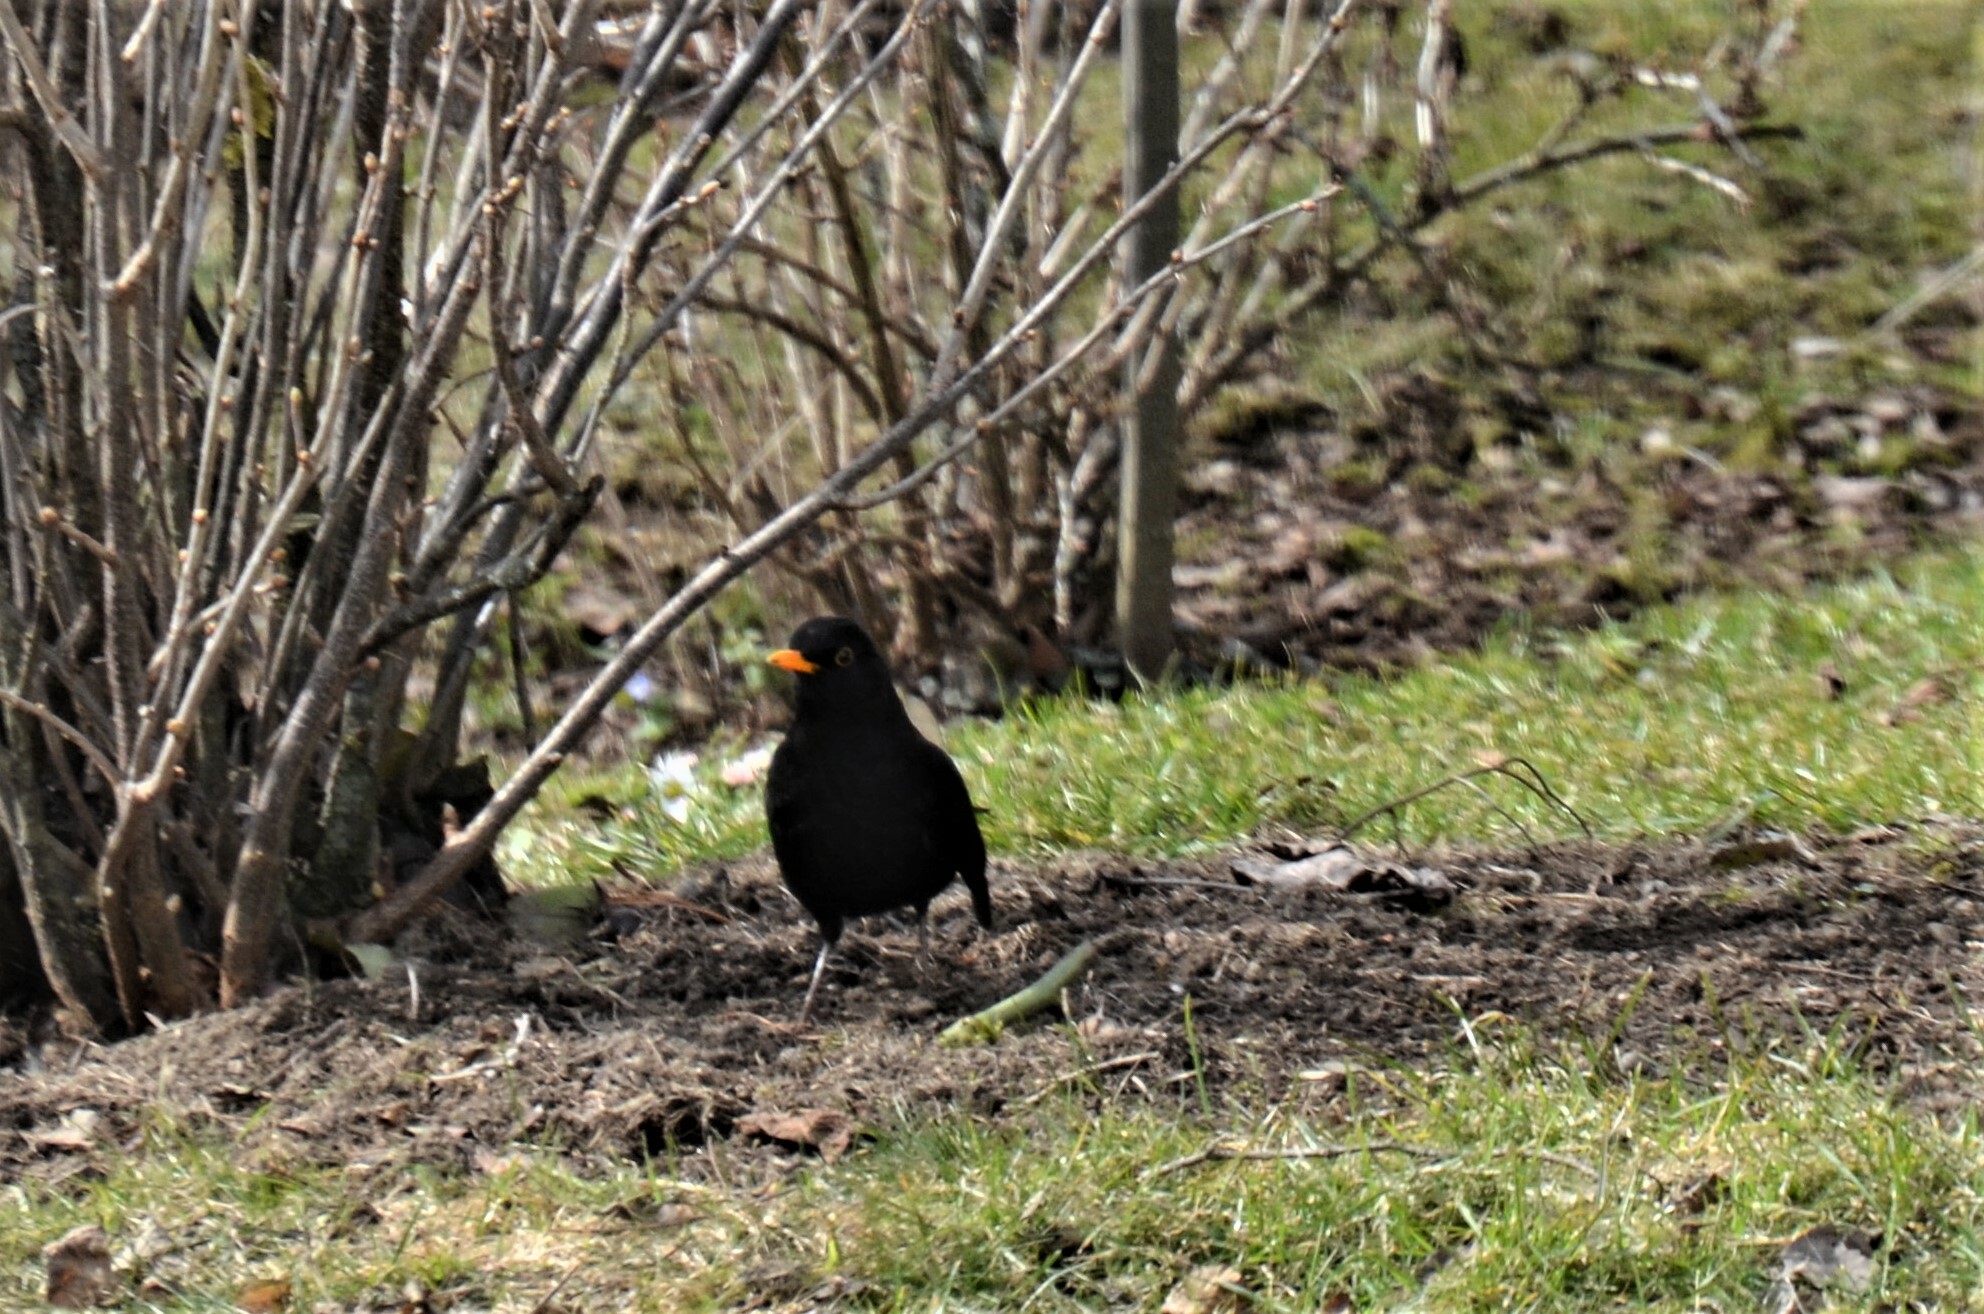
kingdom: Animalia
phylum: Chordata
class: Aves
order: Passeriformes
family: Turdidae
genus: Turdus
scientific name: Turdus merula
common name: Common blackbird
